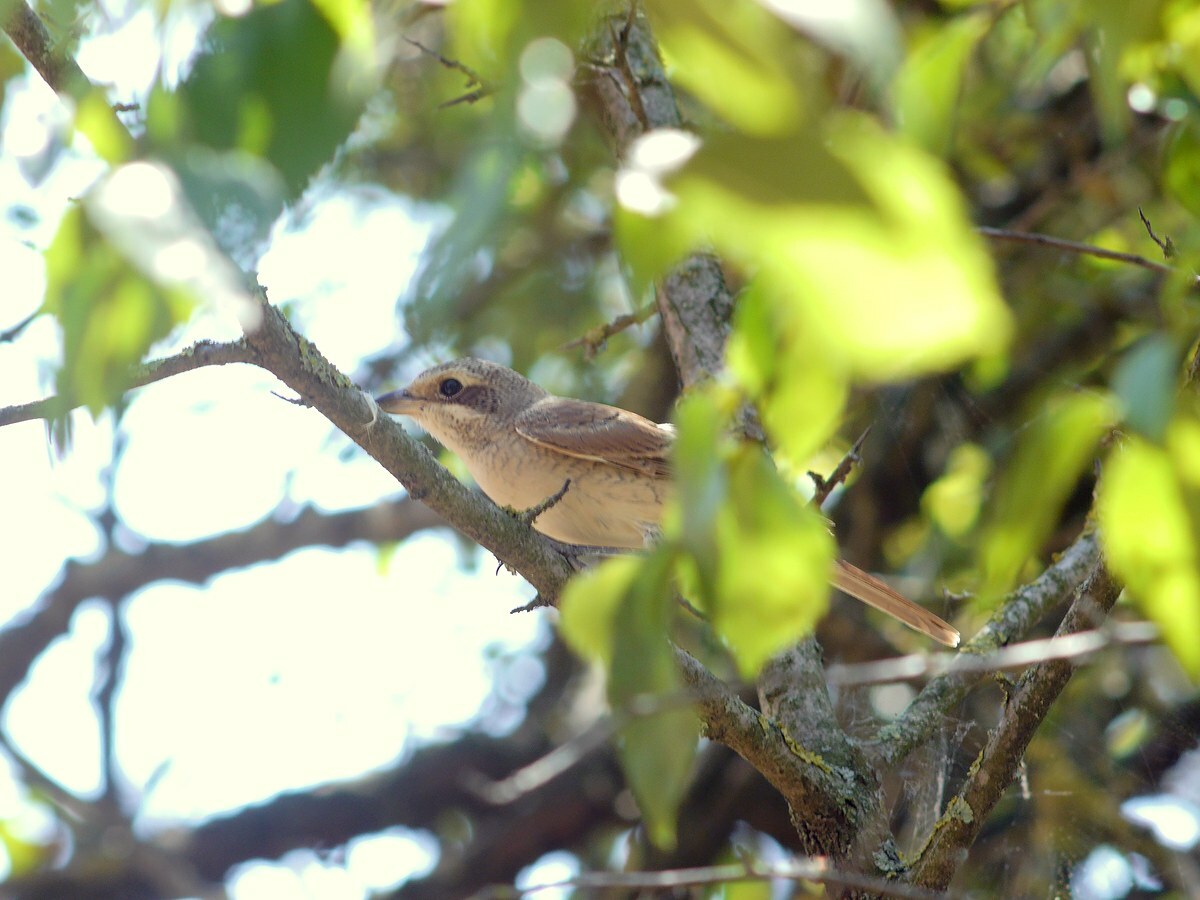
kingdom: Animalia
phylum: Chordata
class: Aves
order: Passeriformes
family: Laniidae
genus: Lanius
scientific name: Lanius collurio
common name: Red-backed shrike
